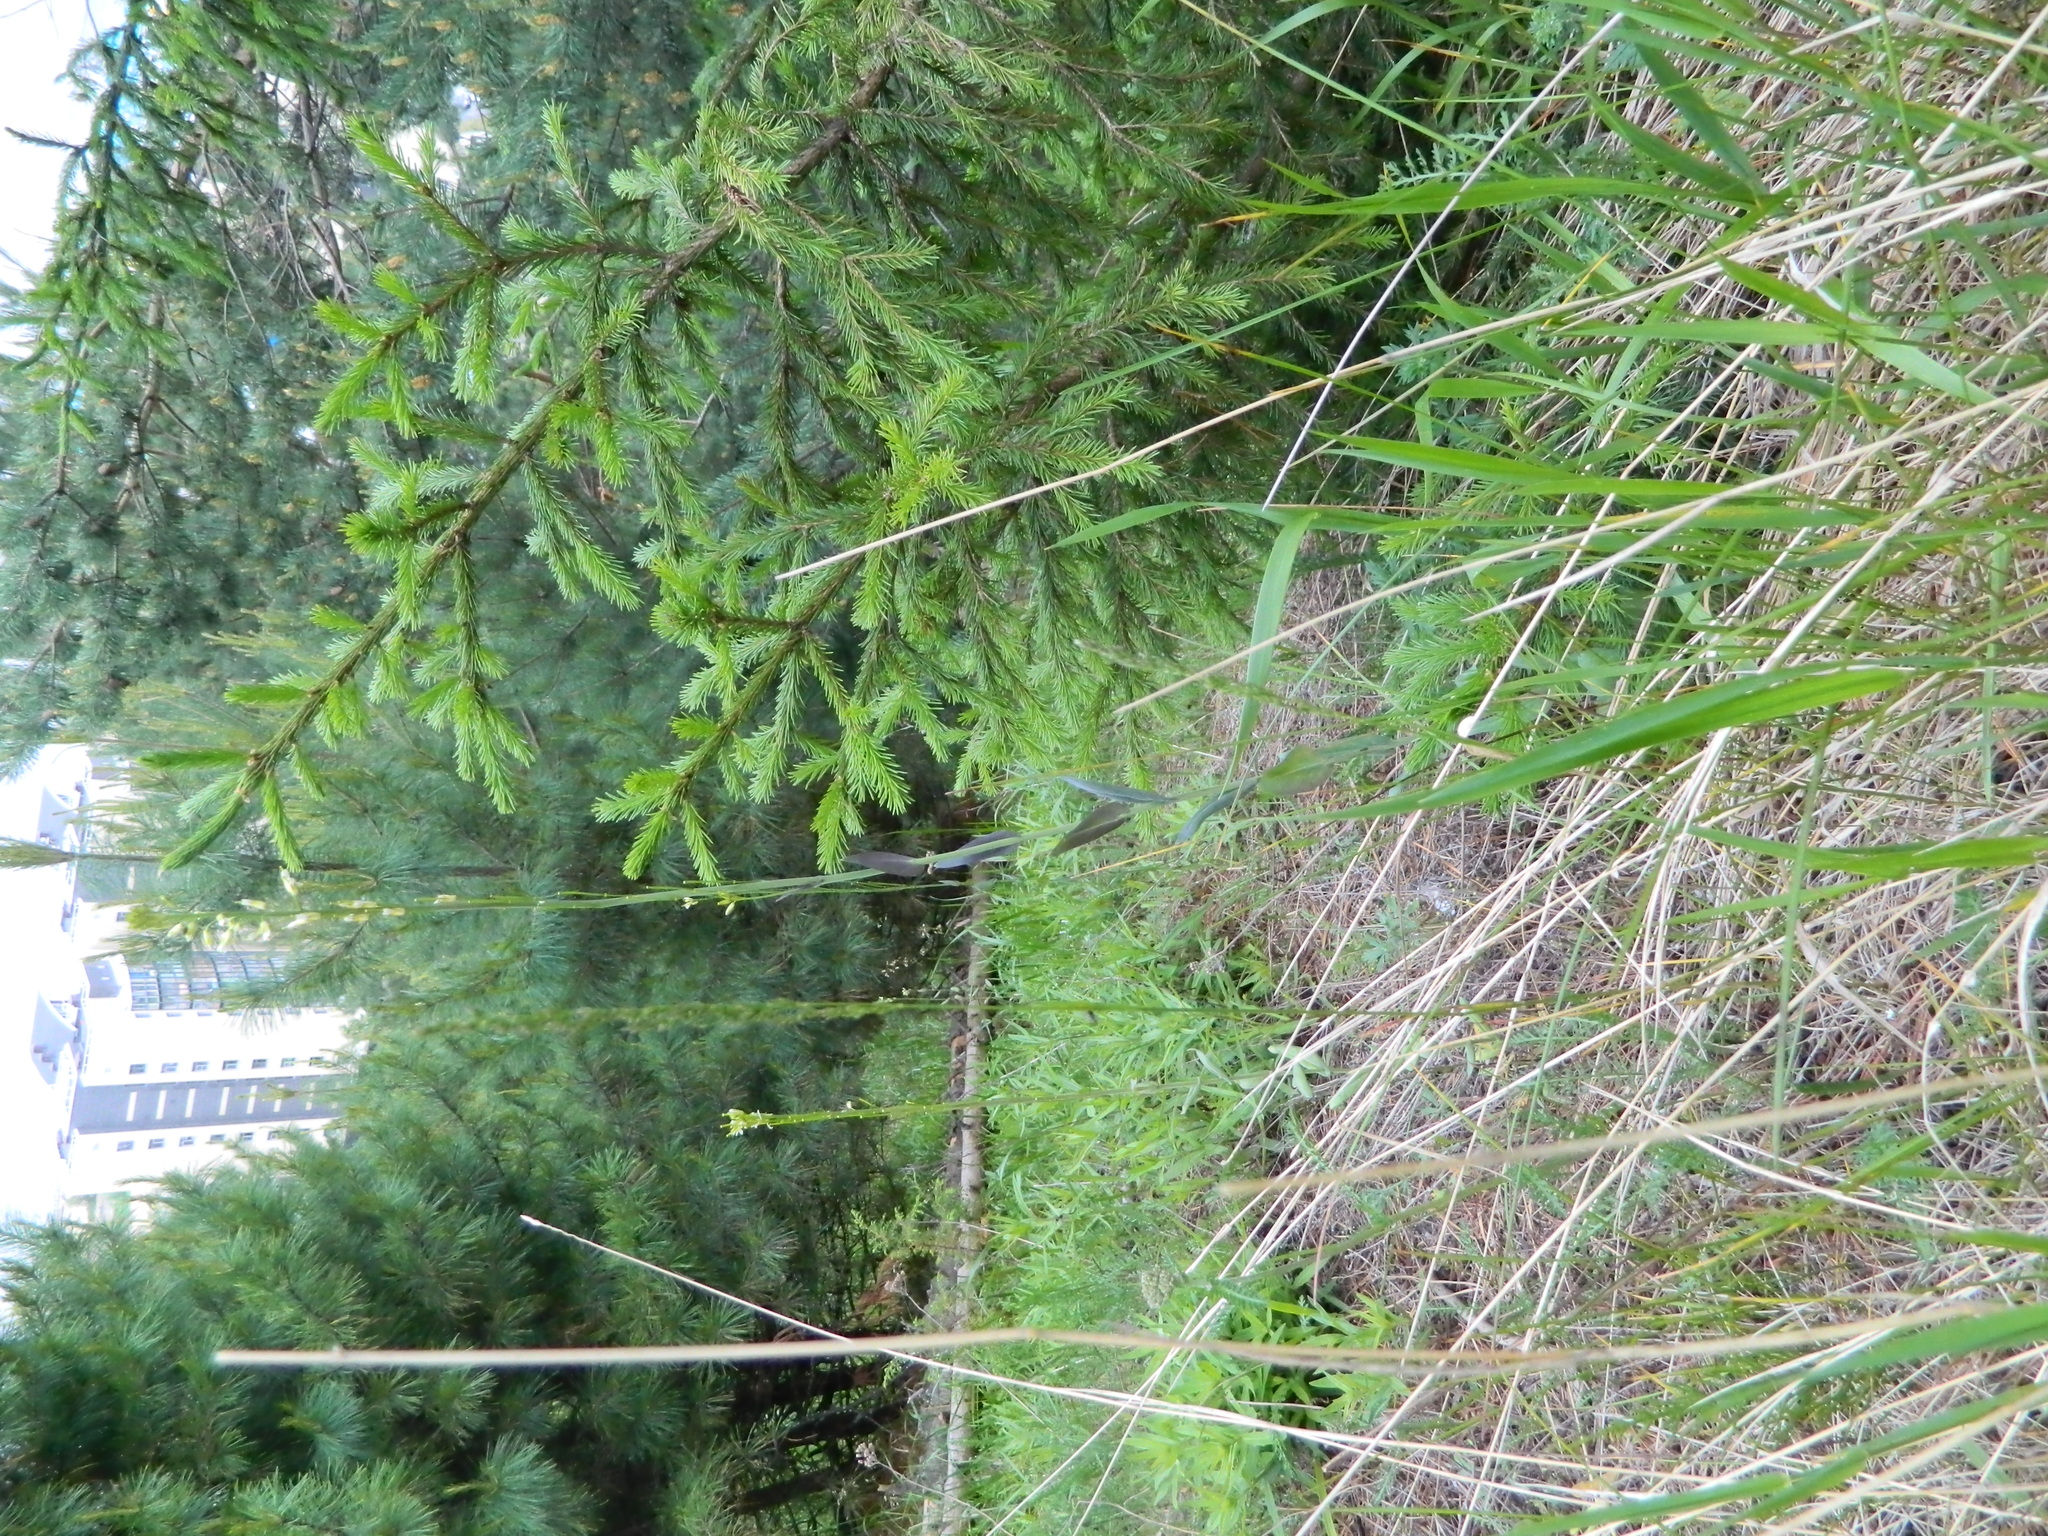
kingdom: Plantae
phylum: Tracheophyta
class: Pinopsida
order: Pinales
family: Pinaceae
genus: Picea
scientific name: Picea obovata
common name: Siberian spruce
